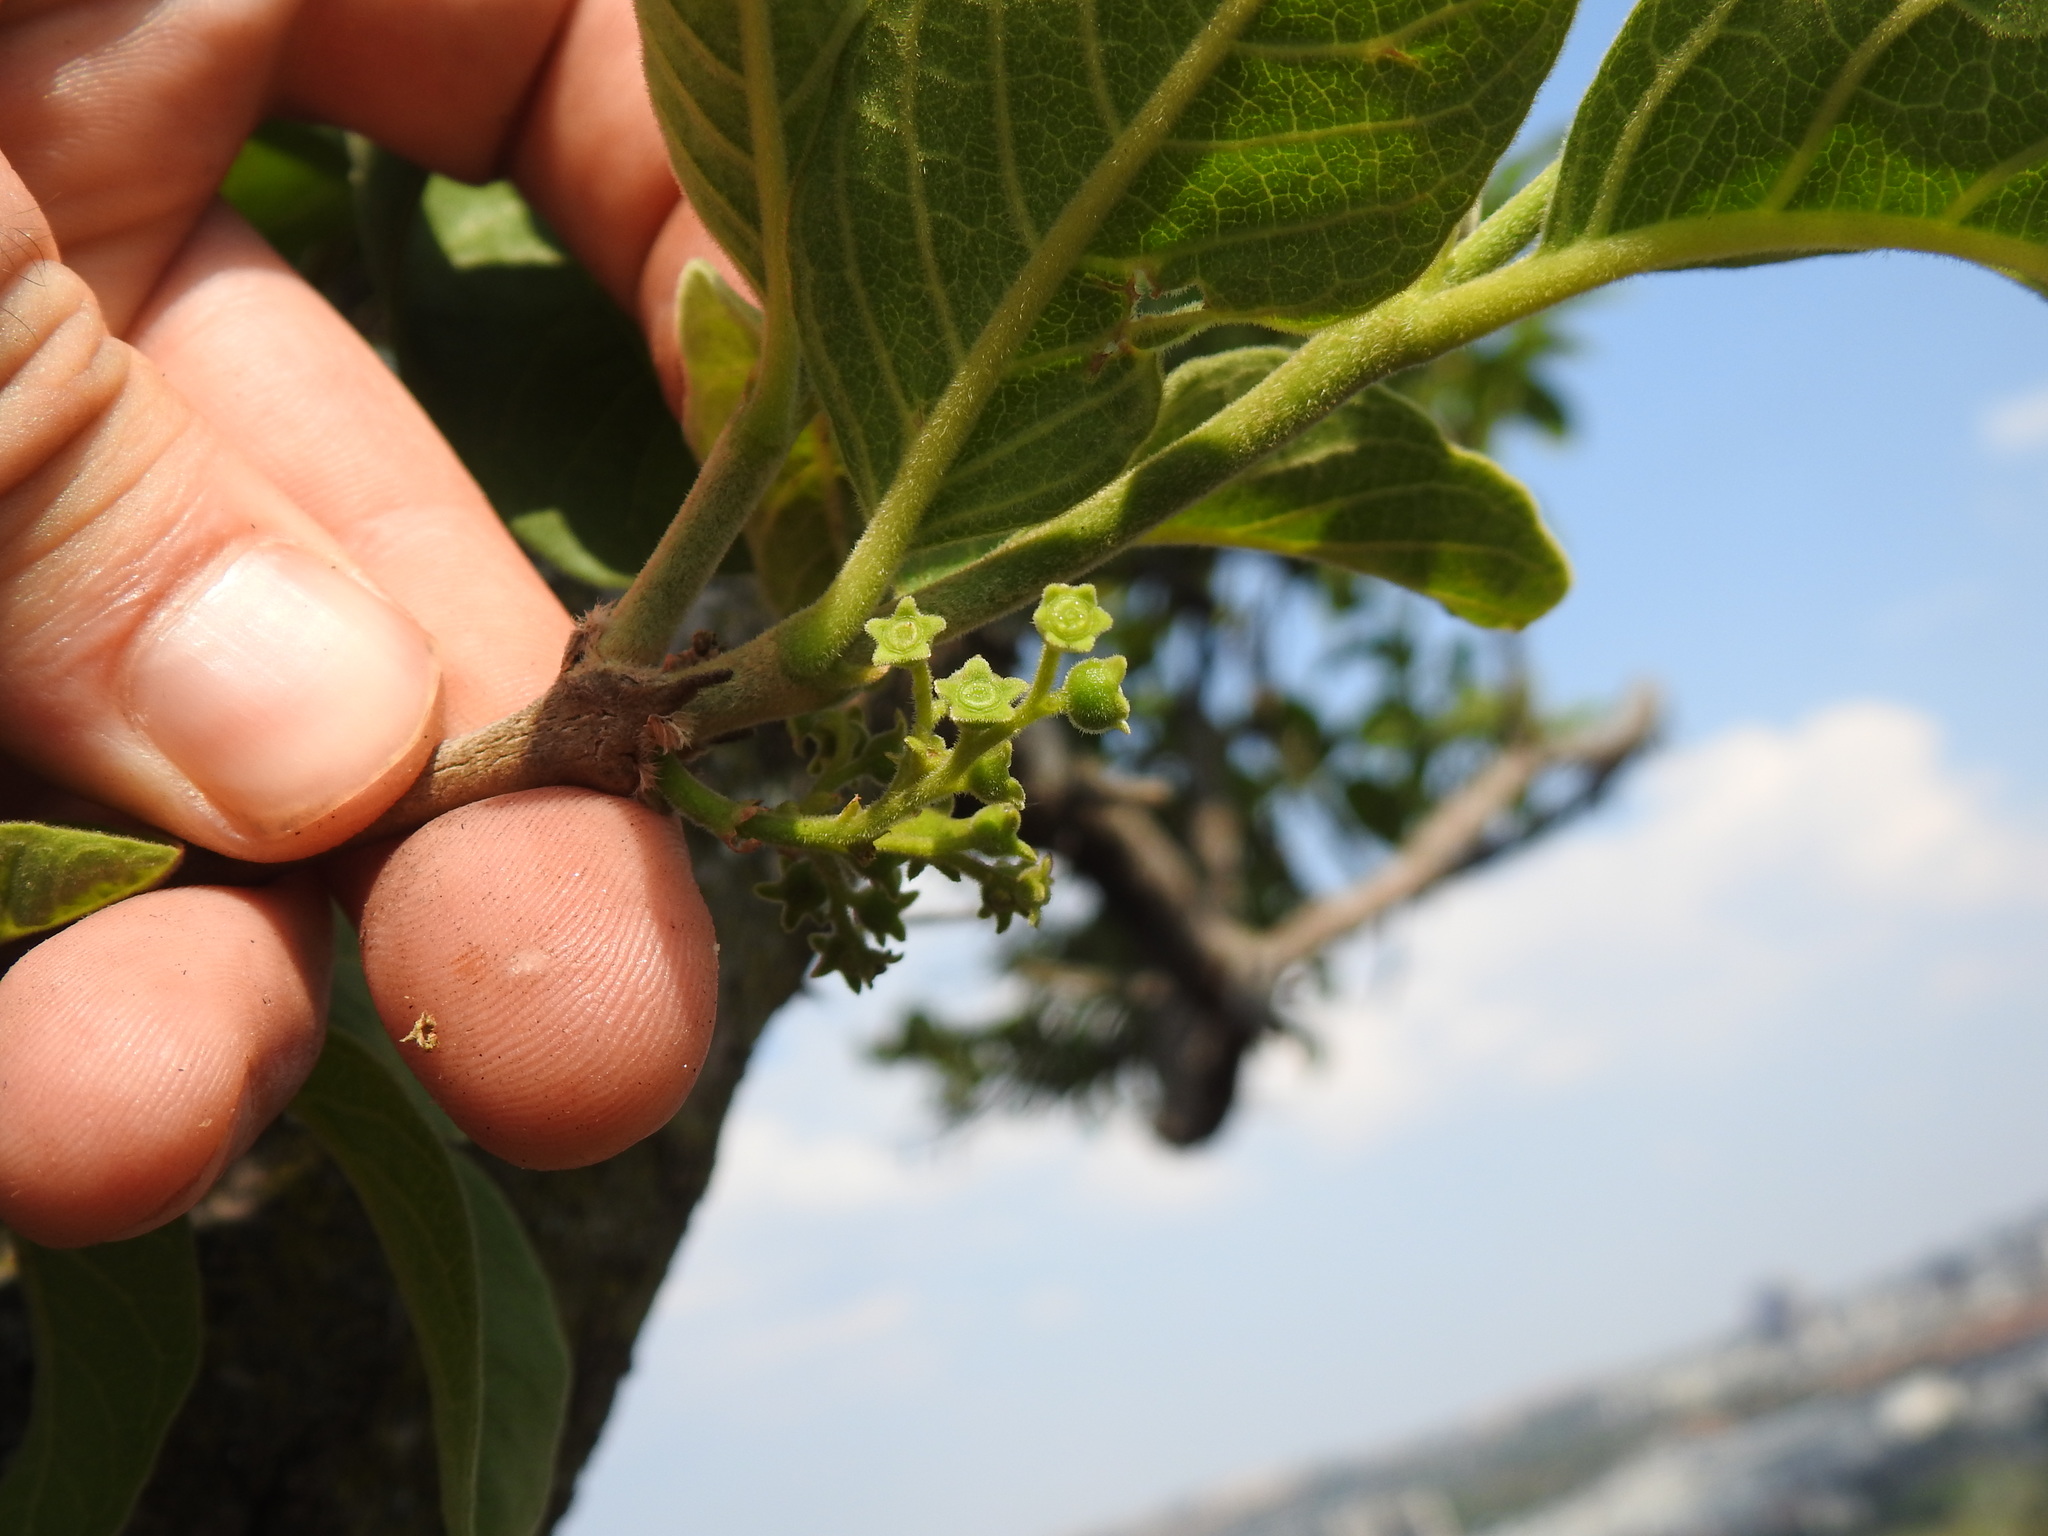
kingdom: Plantae
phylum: Tracheophyta
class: Magnoliopsida
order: Gentianales
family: Rubiaceae
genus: Vangueria
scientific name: Vangueria infausta
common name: Medlar
